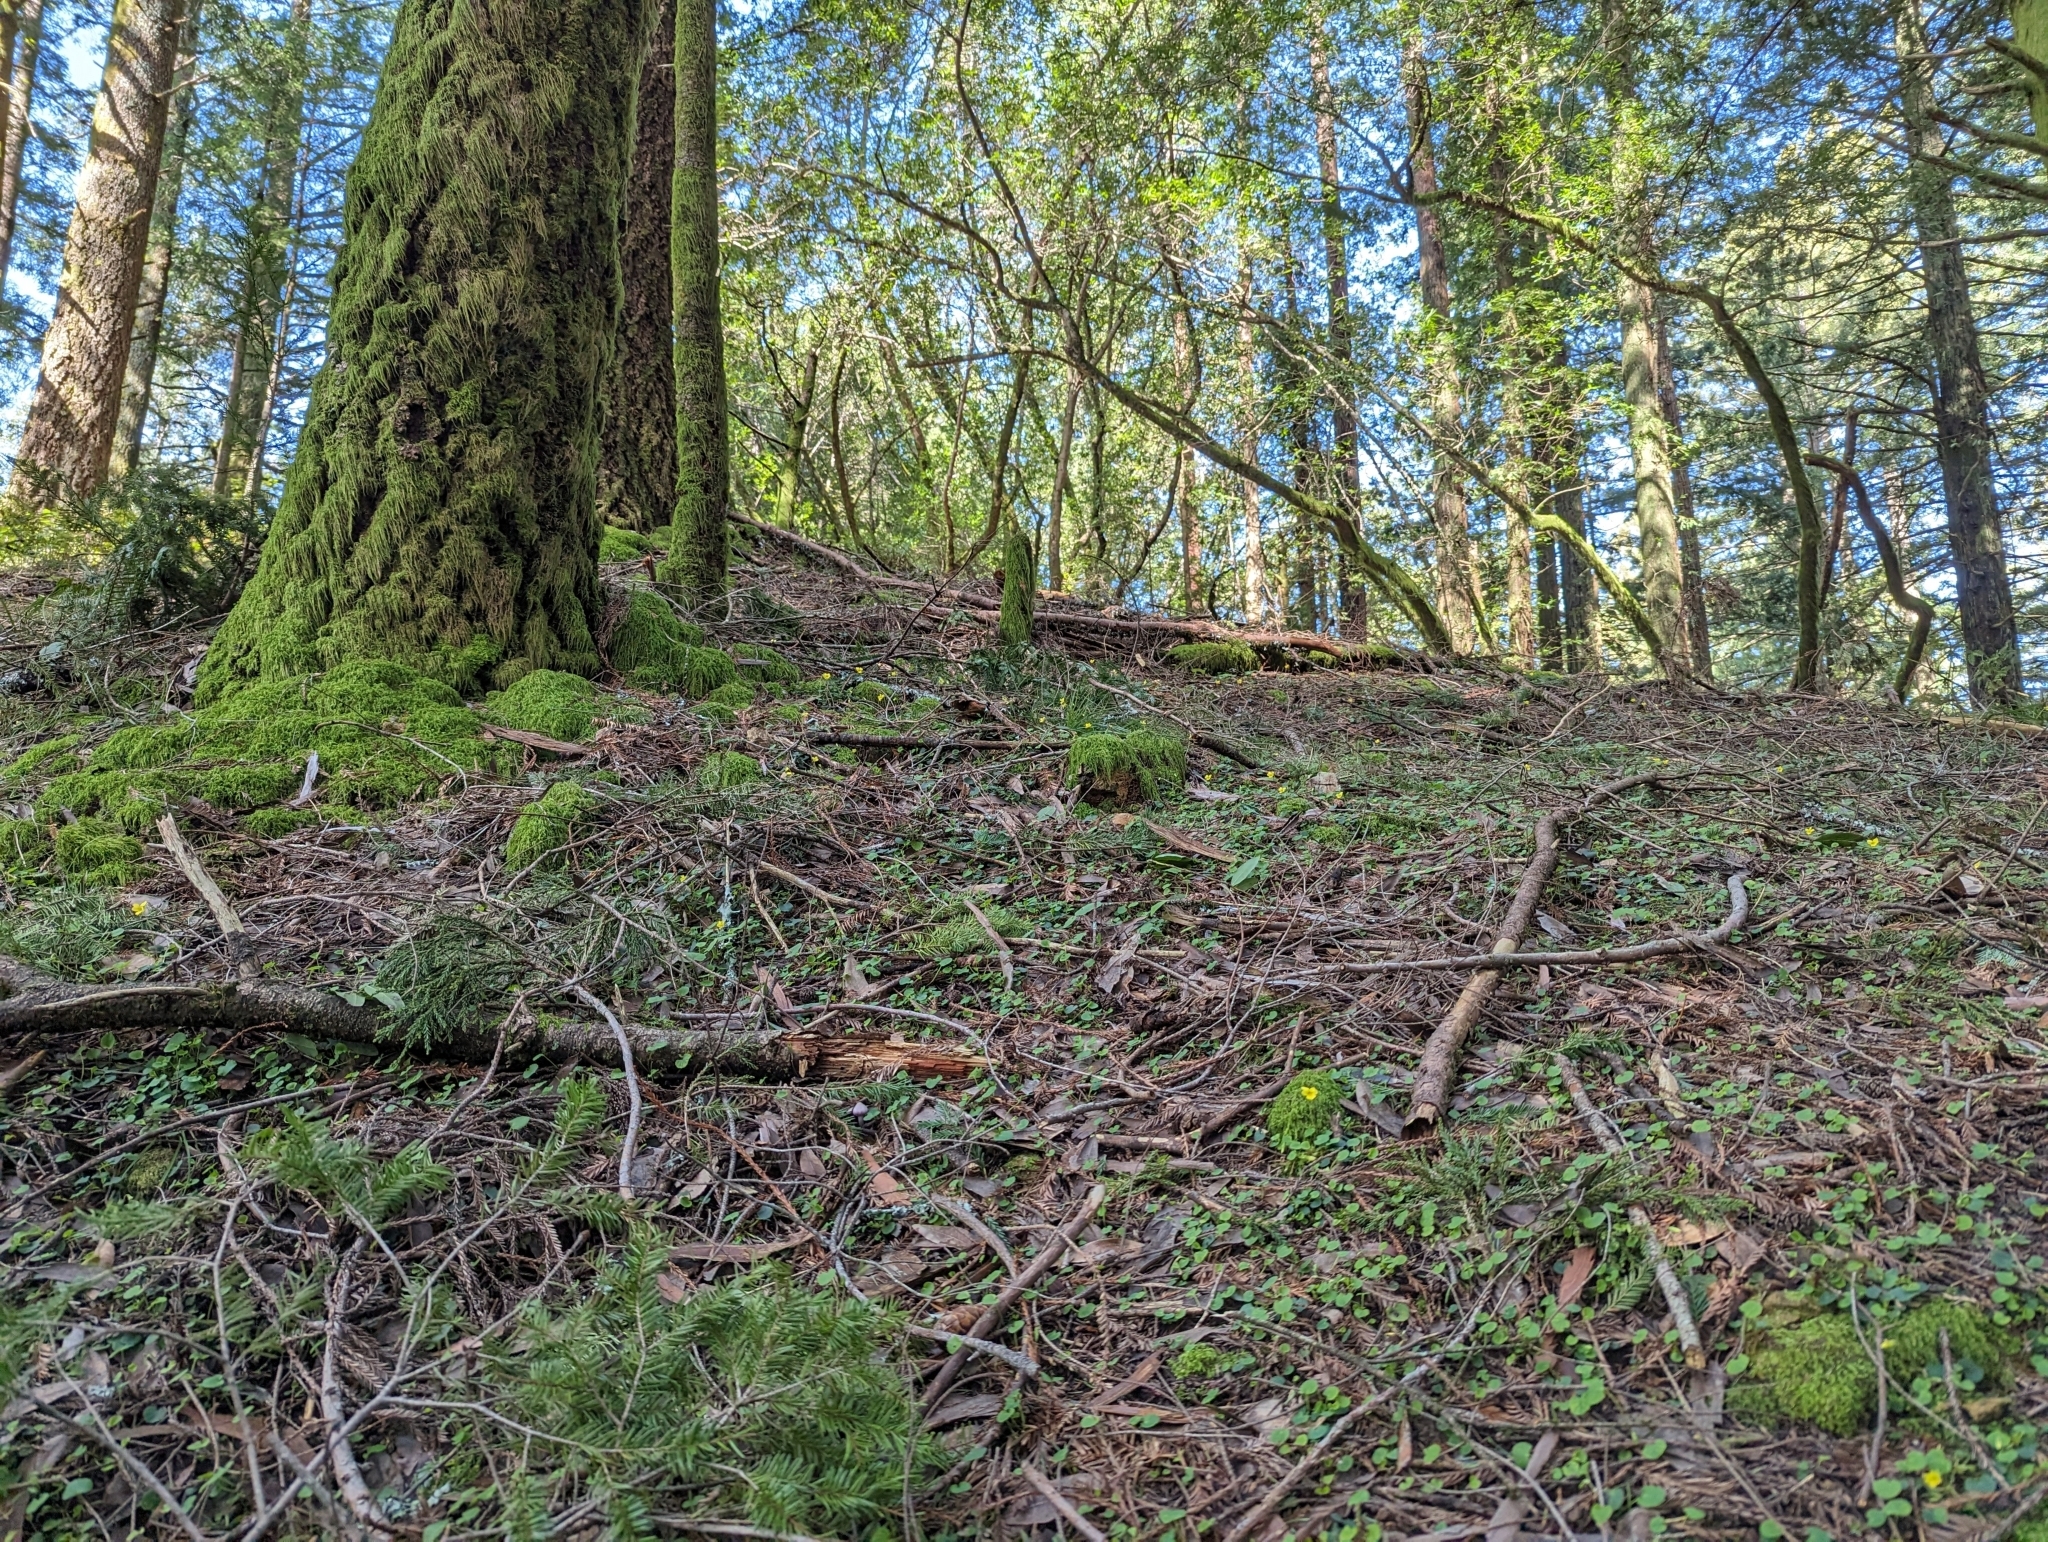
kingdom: Plantae
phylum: Tracheophyta
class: Magnoliopsida
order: Malpighiales
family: Violaceae
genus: Viola
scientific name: Viola sempervirens
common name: Evergreen violet
